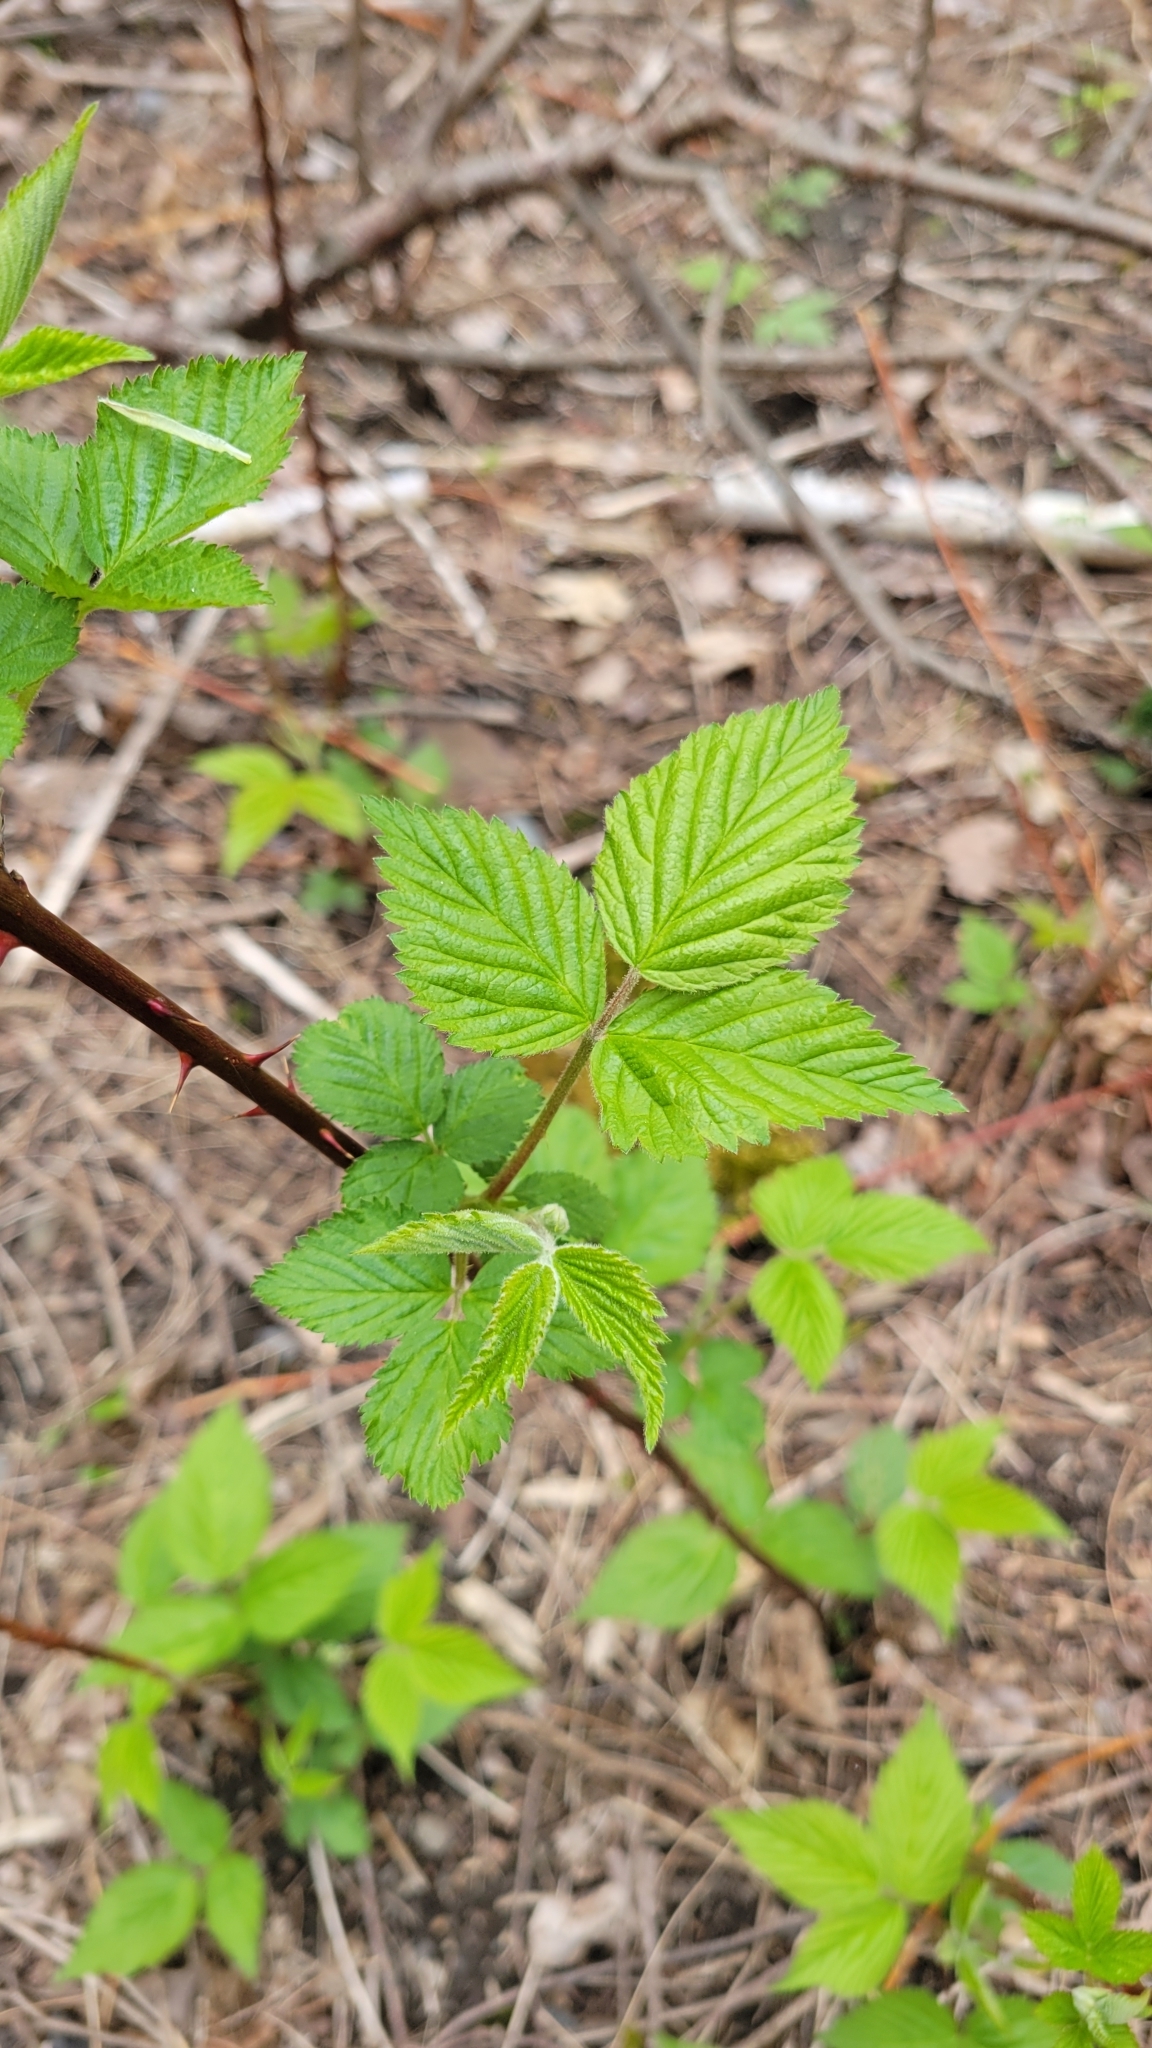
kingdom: Plantae
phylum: Tracheophyta
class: Magnoliopsida
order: Rosales
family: Rosaceae
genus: Rubus
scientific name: Rubus allegheniensis
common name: Allegheny blackberry
